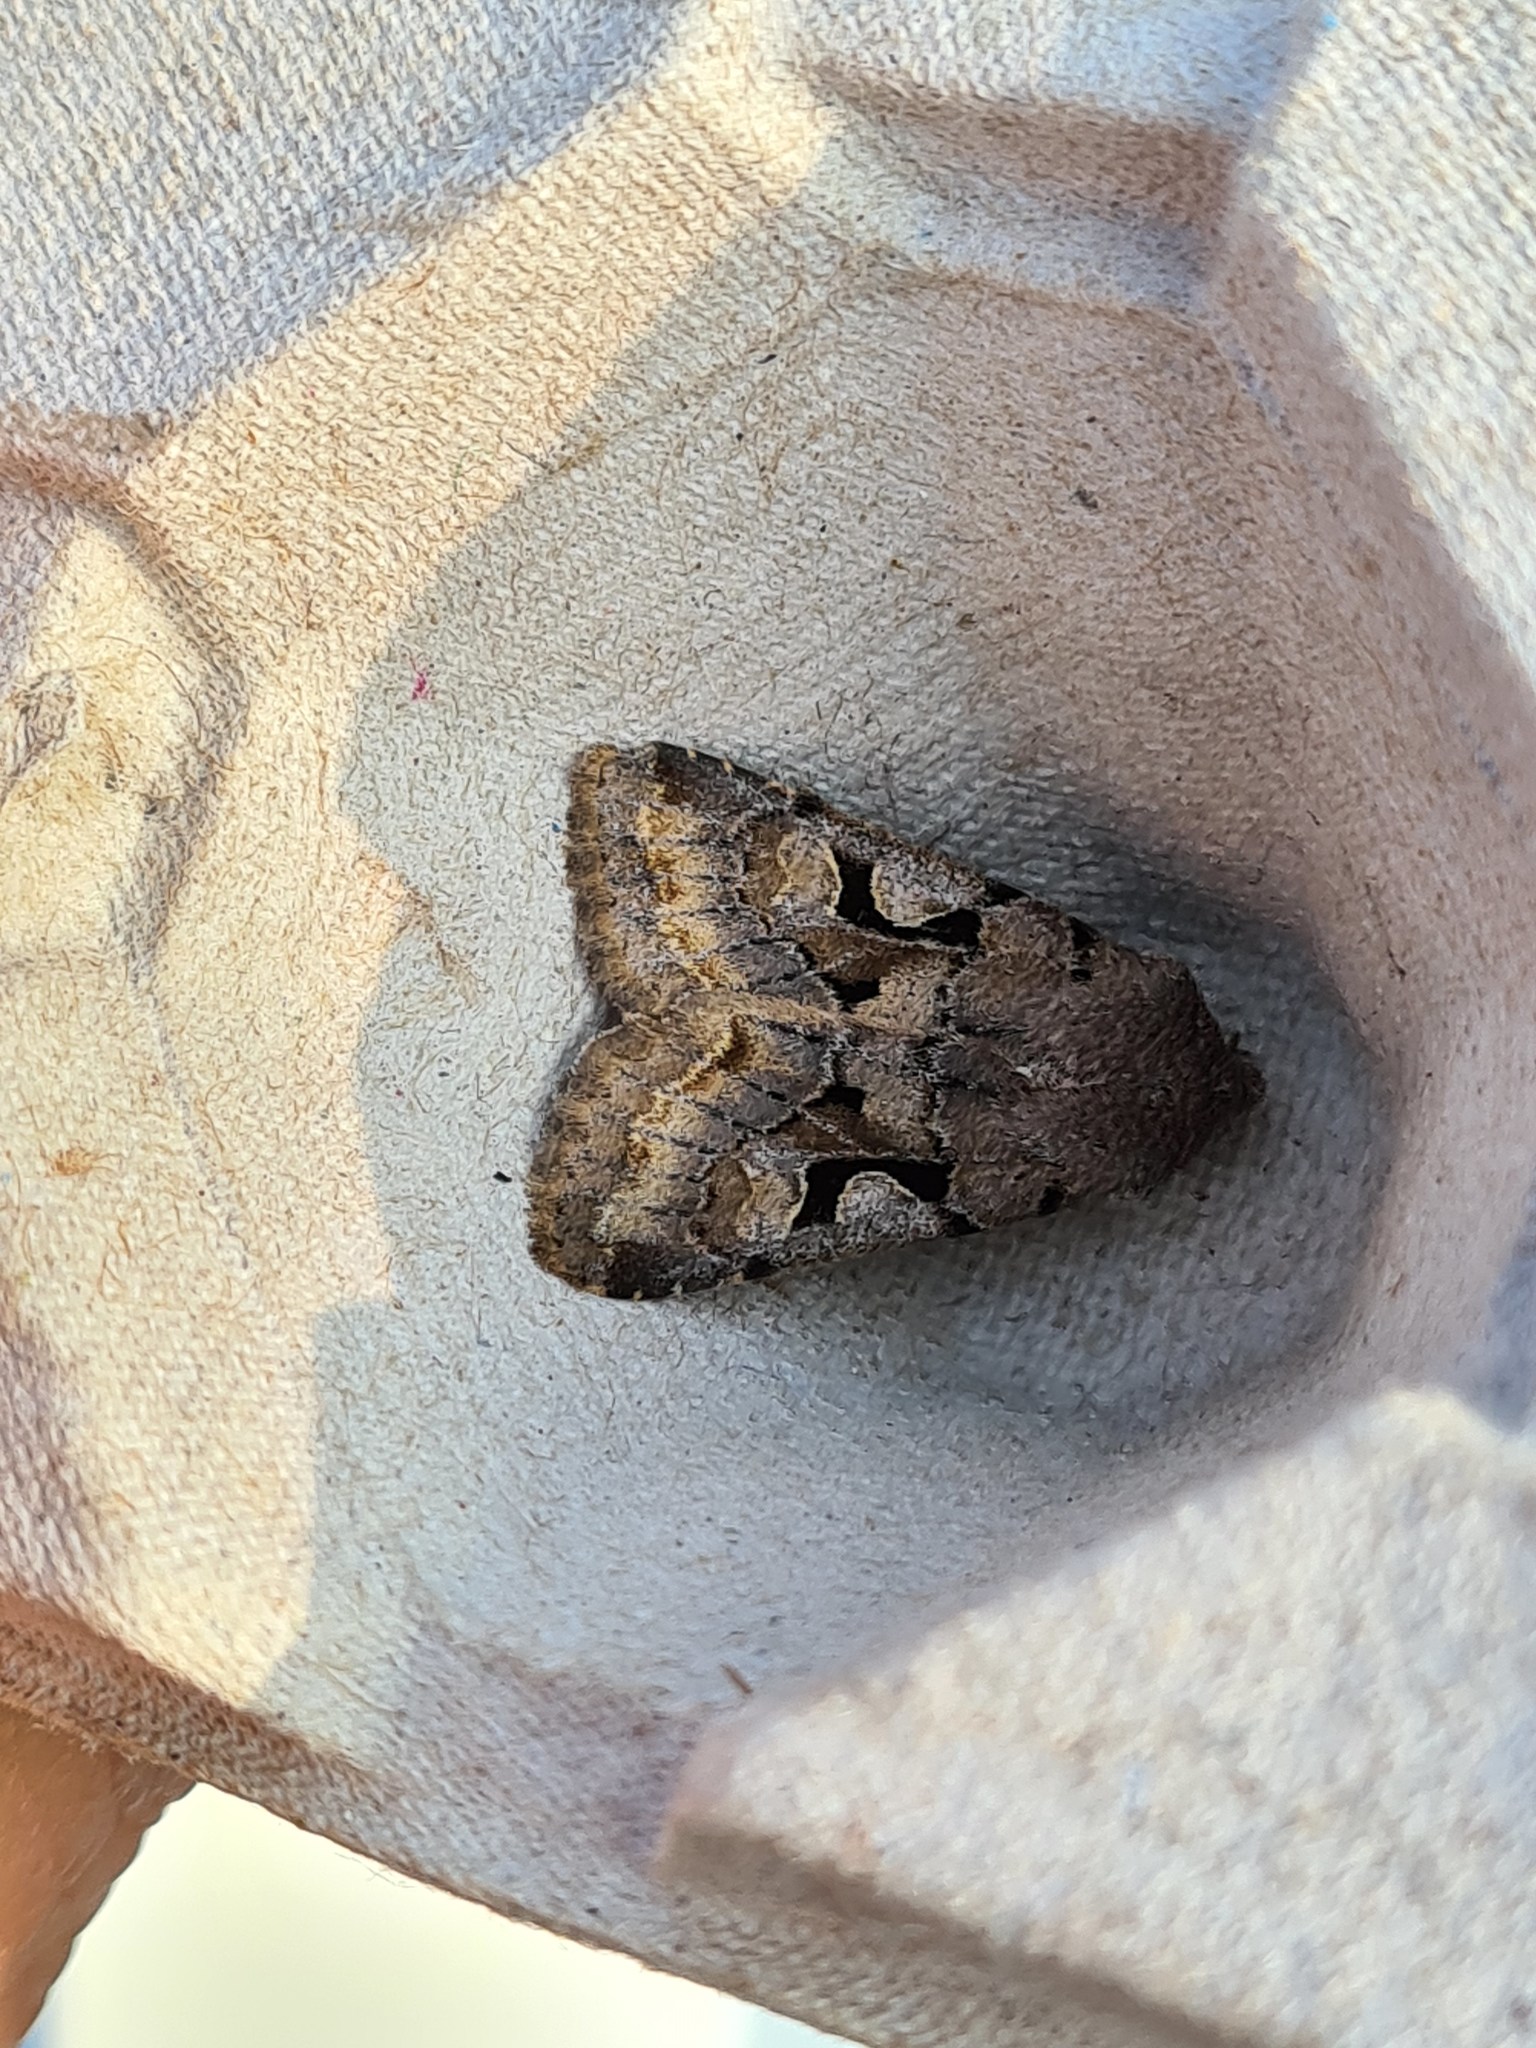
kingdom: Animalia
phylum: Arthropoda
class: Insecta
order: Lepidoptera
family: Noctuidae
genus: Orthosia
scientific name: Orthosia gothica
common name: Hebrew character
